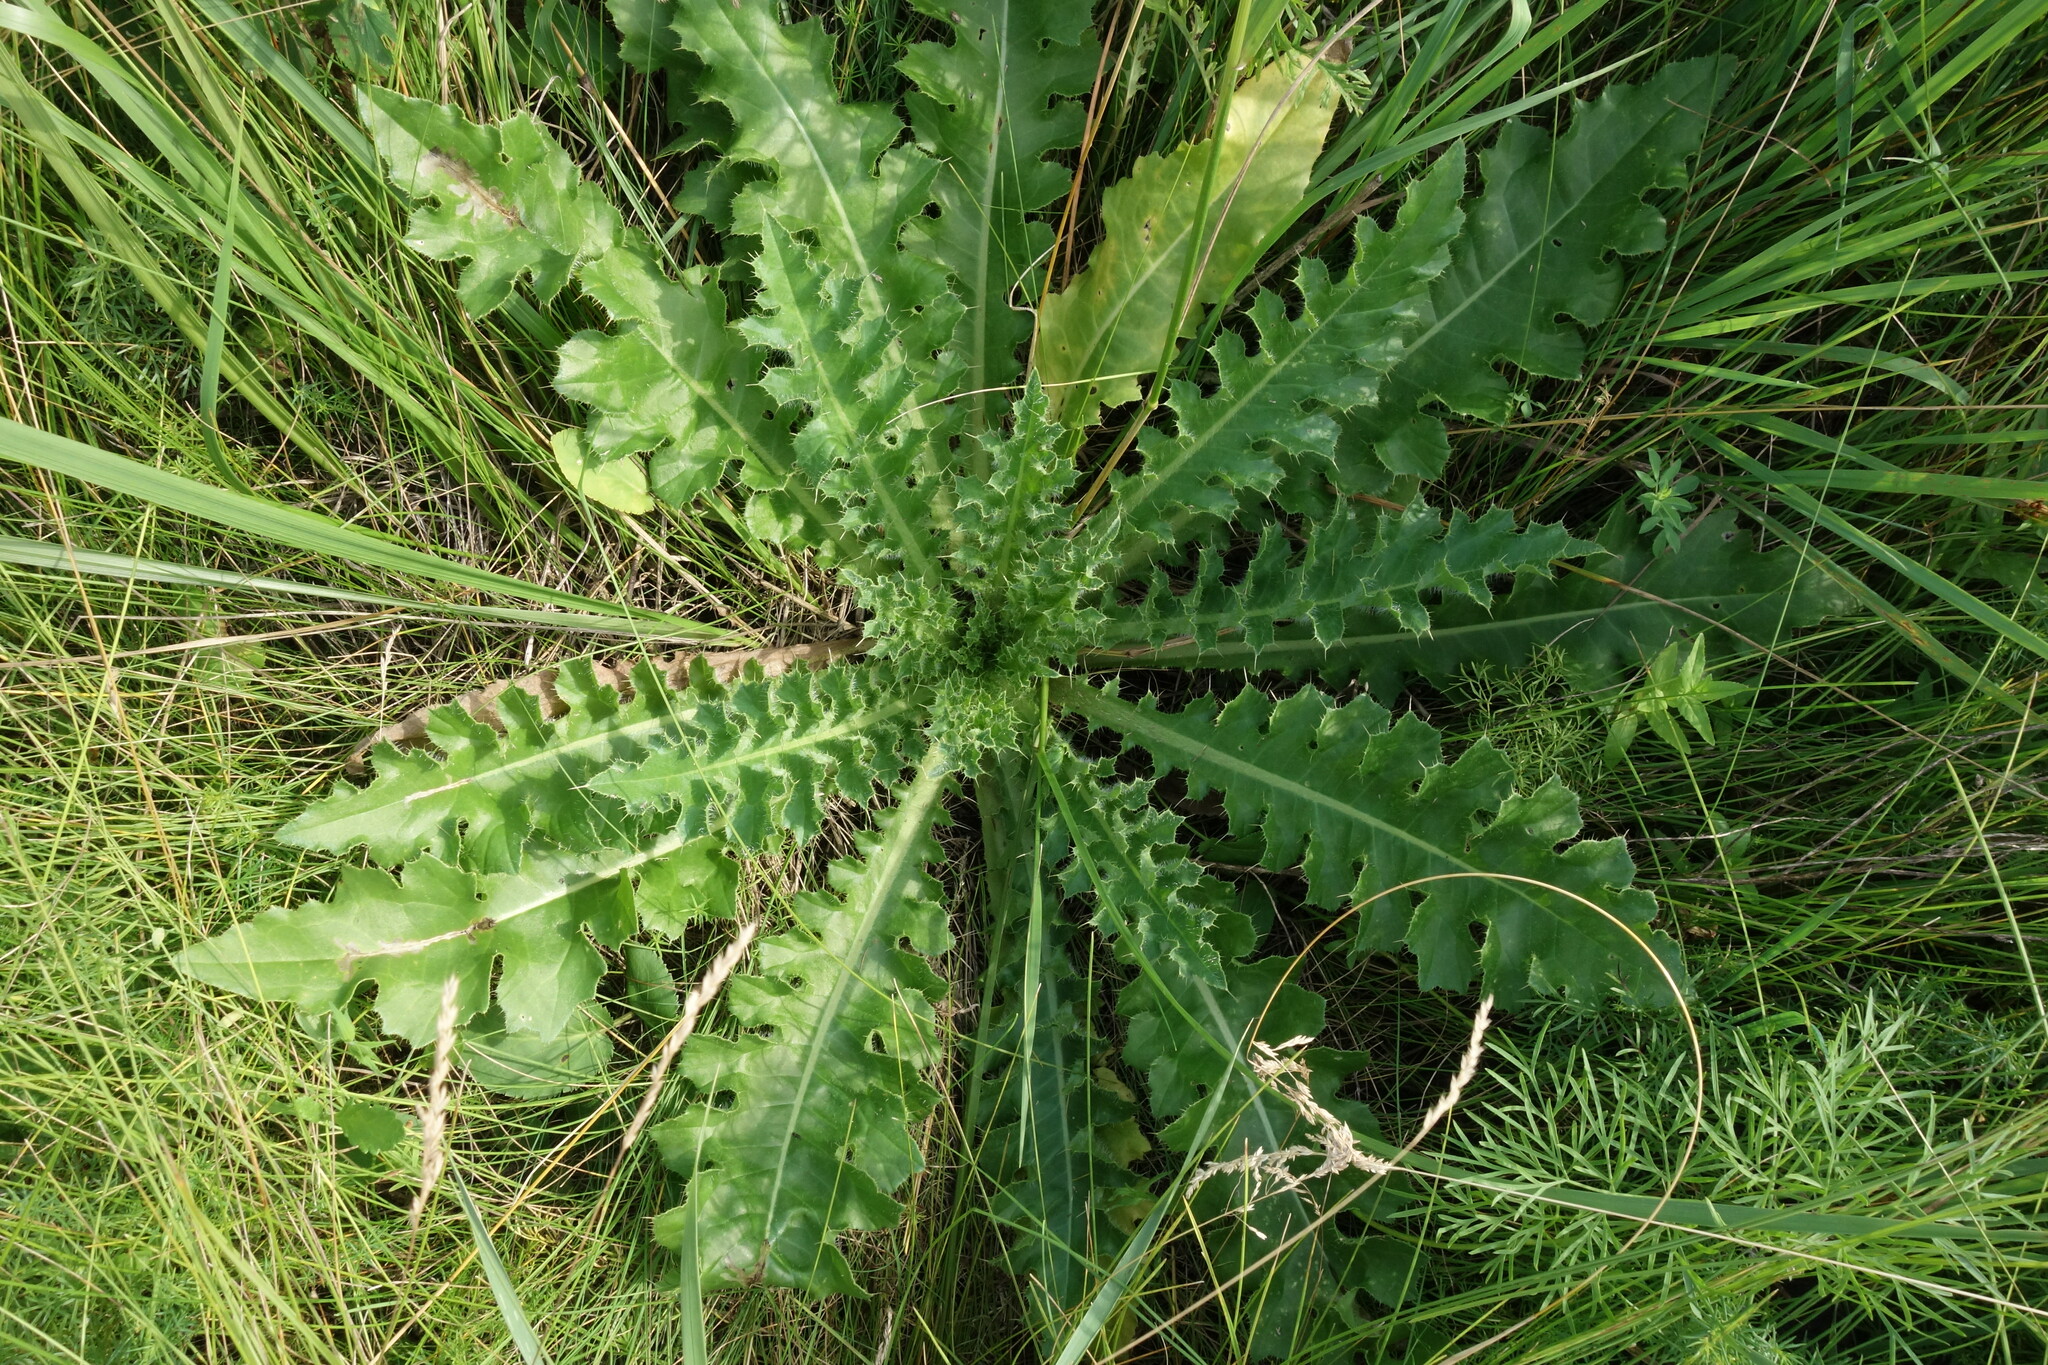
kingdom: Plantae
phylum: Tracheophyta
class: Magnoliopsida
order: Asterales
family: Asteraceae
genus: Cirsium
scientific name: Cirsium esculentum
